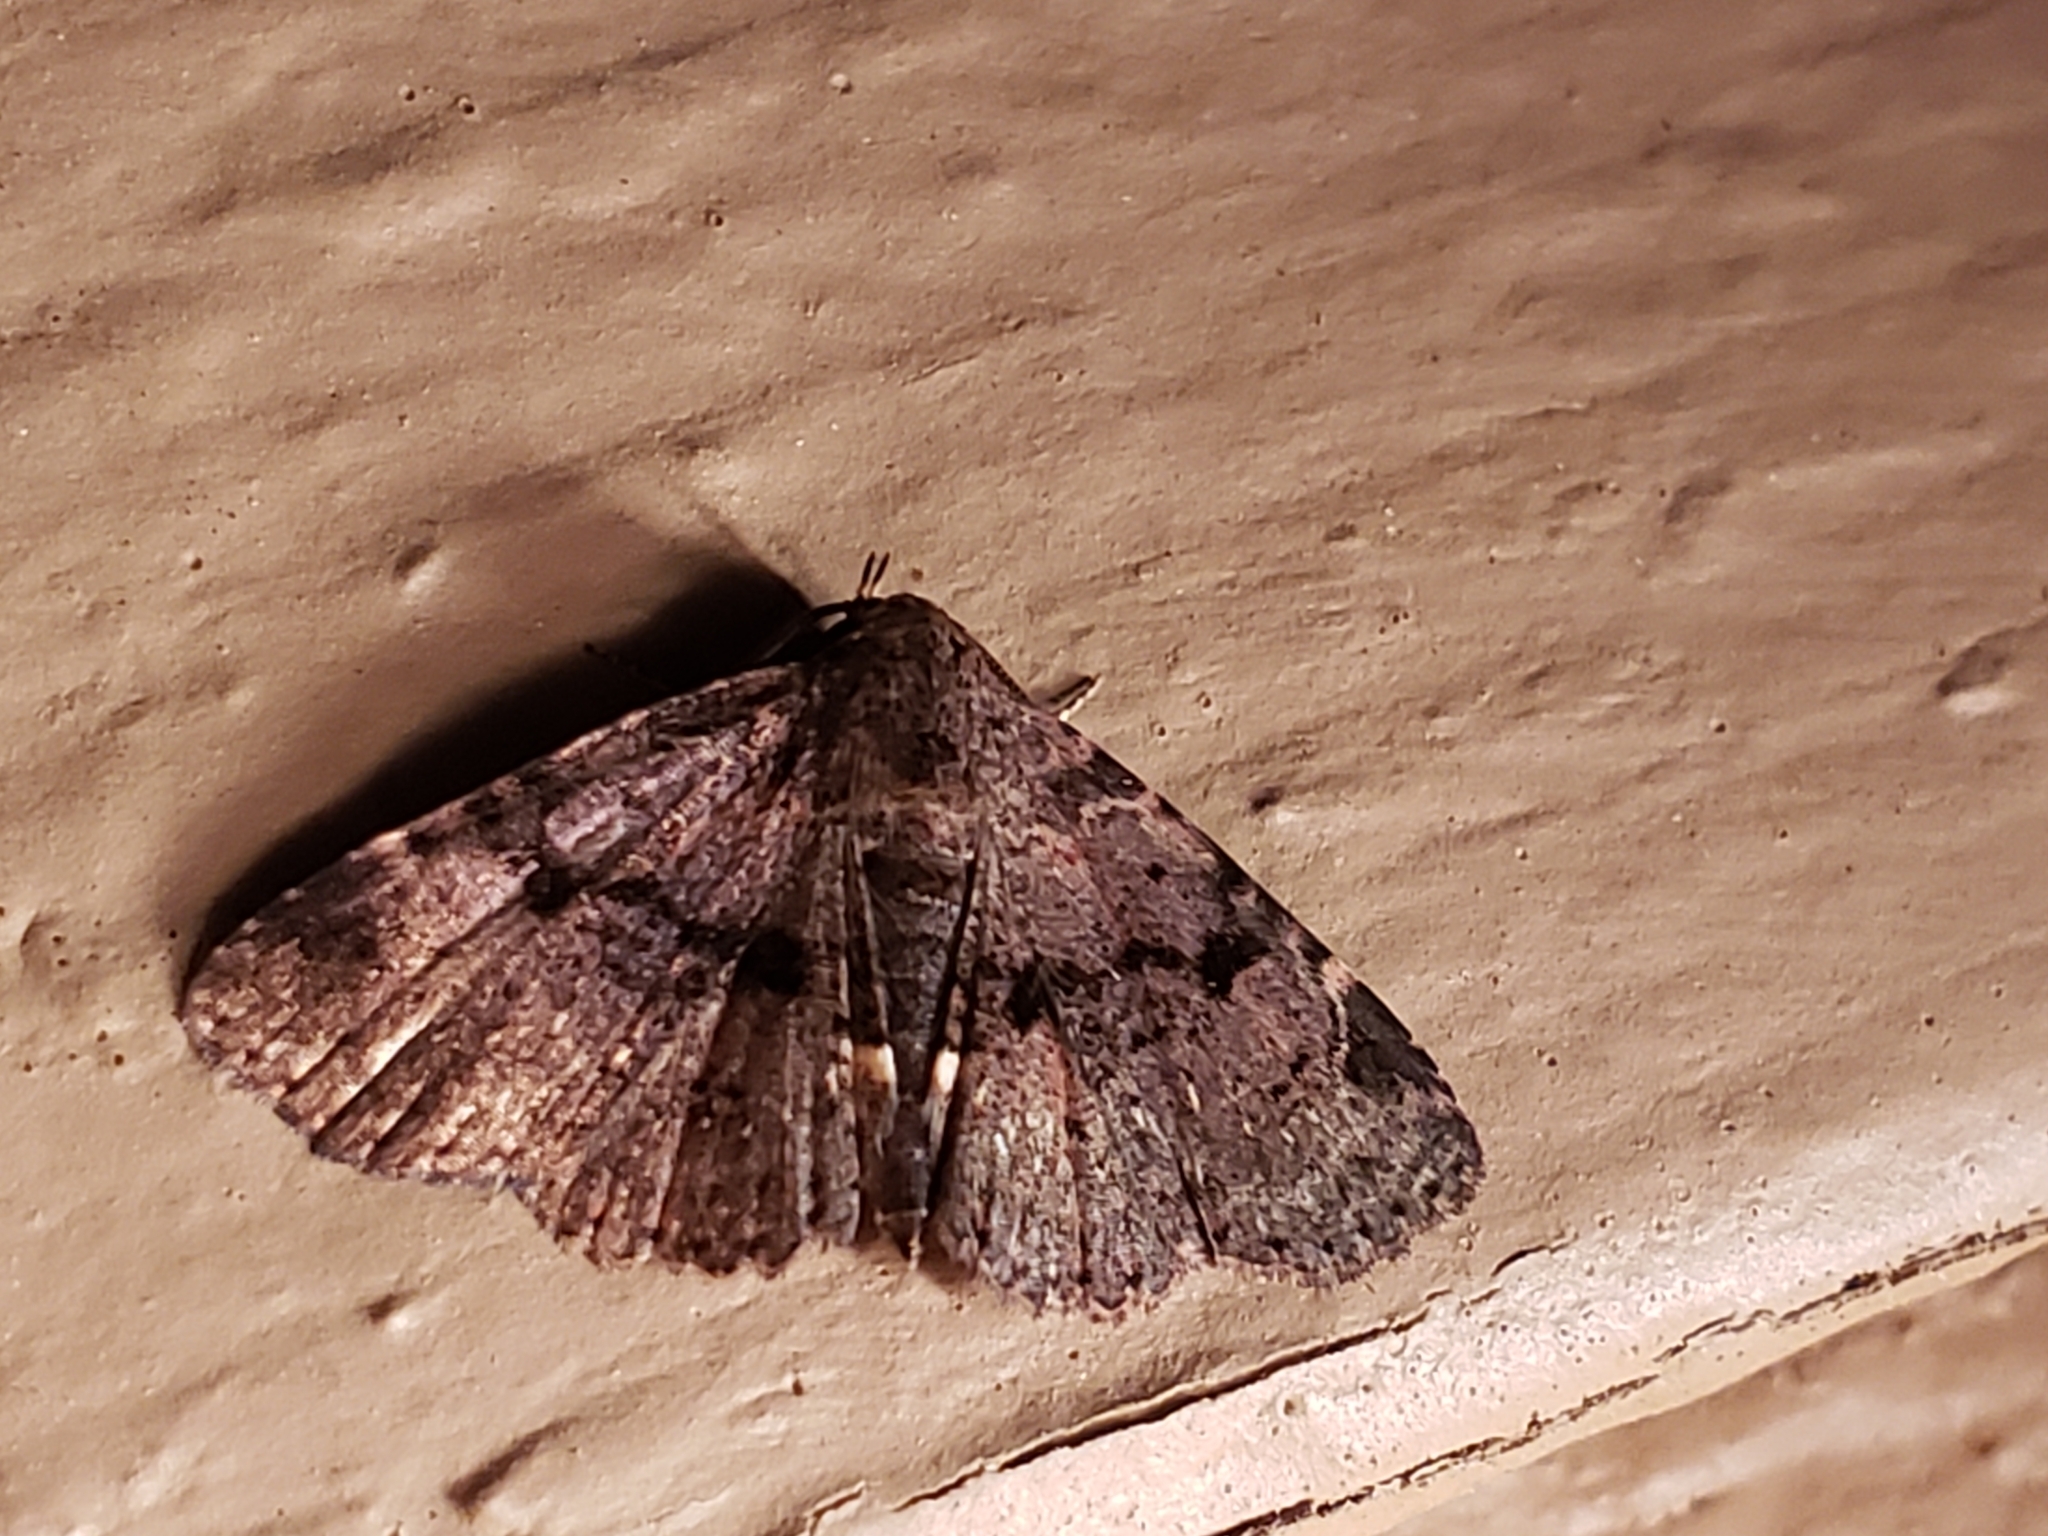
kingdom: Animalia
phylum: Arthropoda
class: Insecta
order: Lepidoptera
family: Erebidae
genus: Metalectra
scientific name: Metalectra quadrisignata
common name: Four-spotted fungus moth
